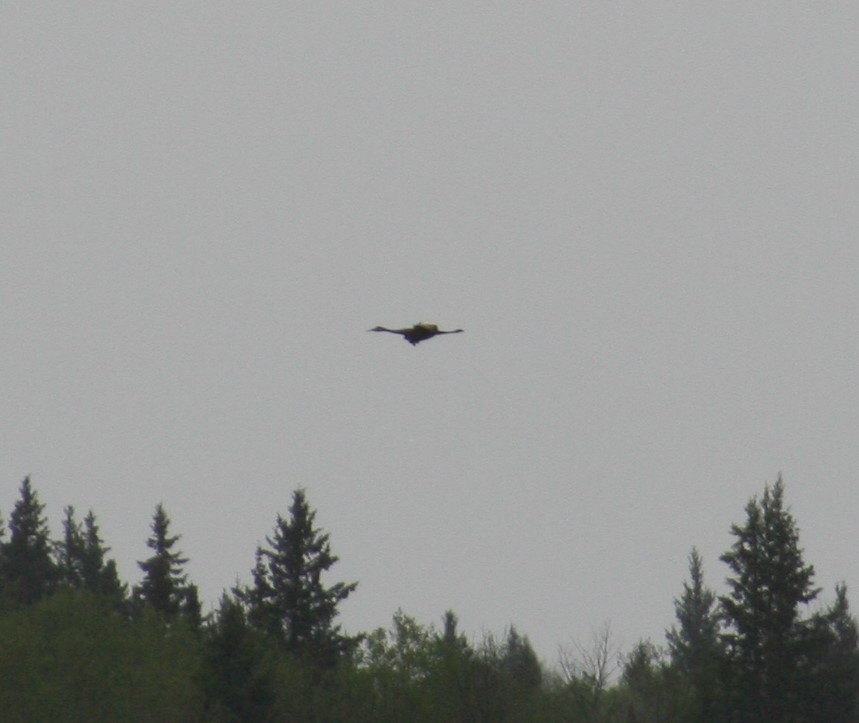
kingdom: Animalia
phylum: Chordata
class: Aves
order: Gruiformes
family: Gruidae
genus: Grus
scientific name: Grus canadensis
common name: Sandhill crane
